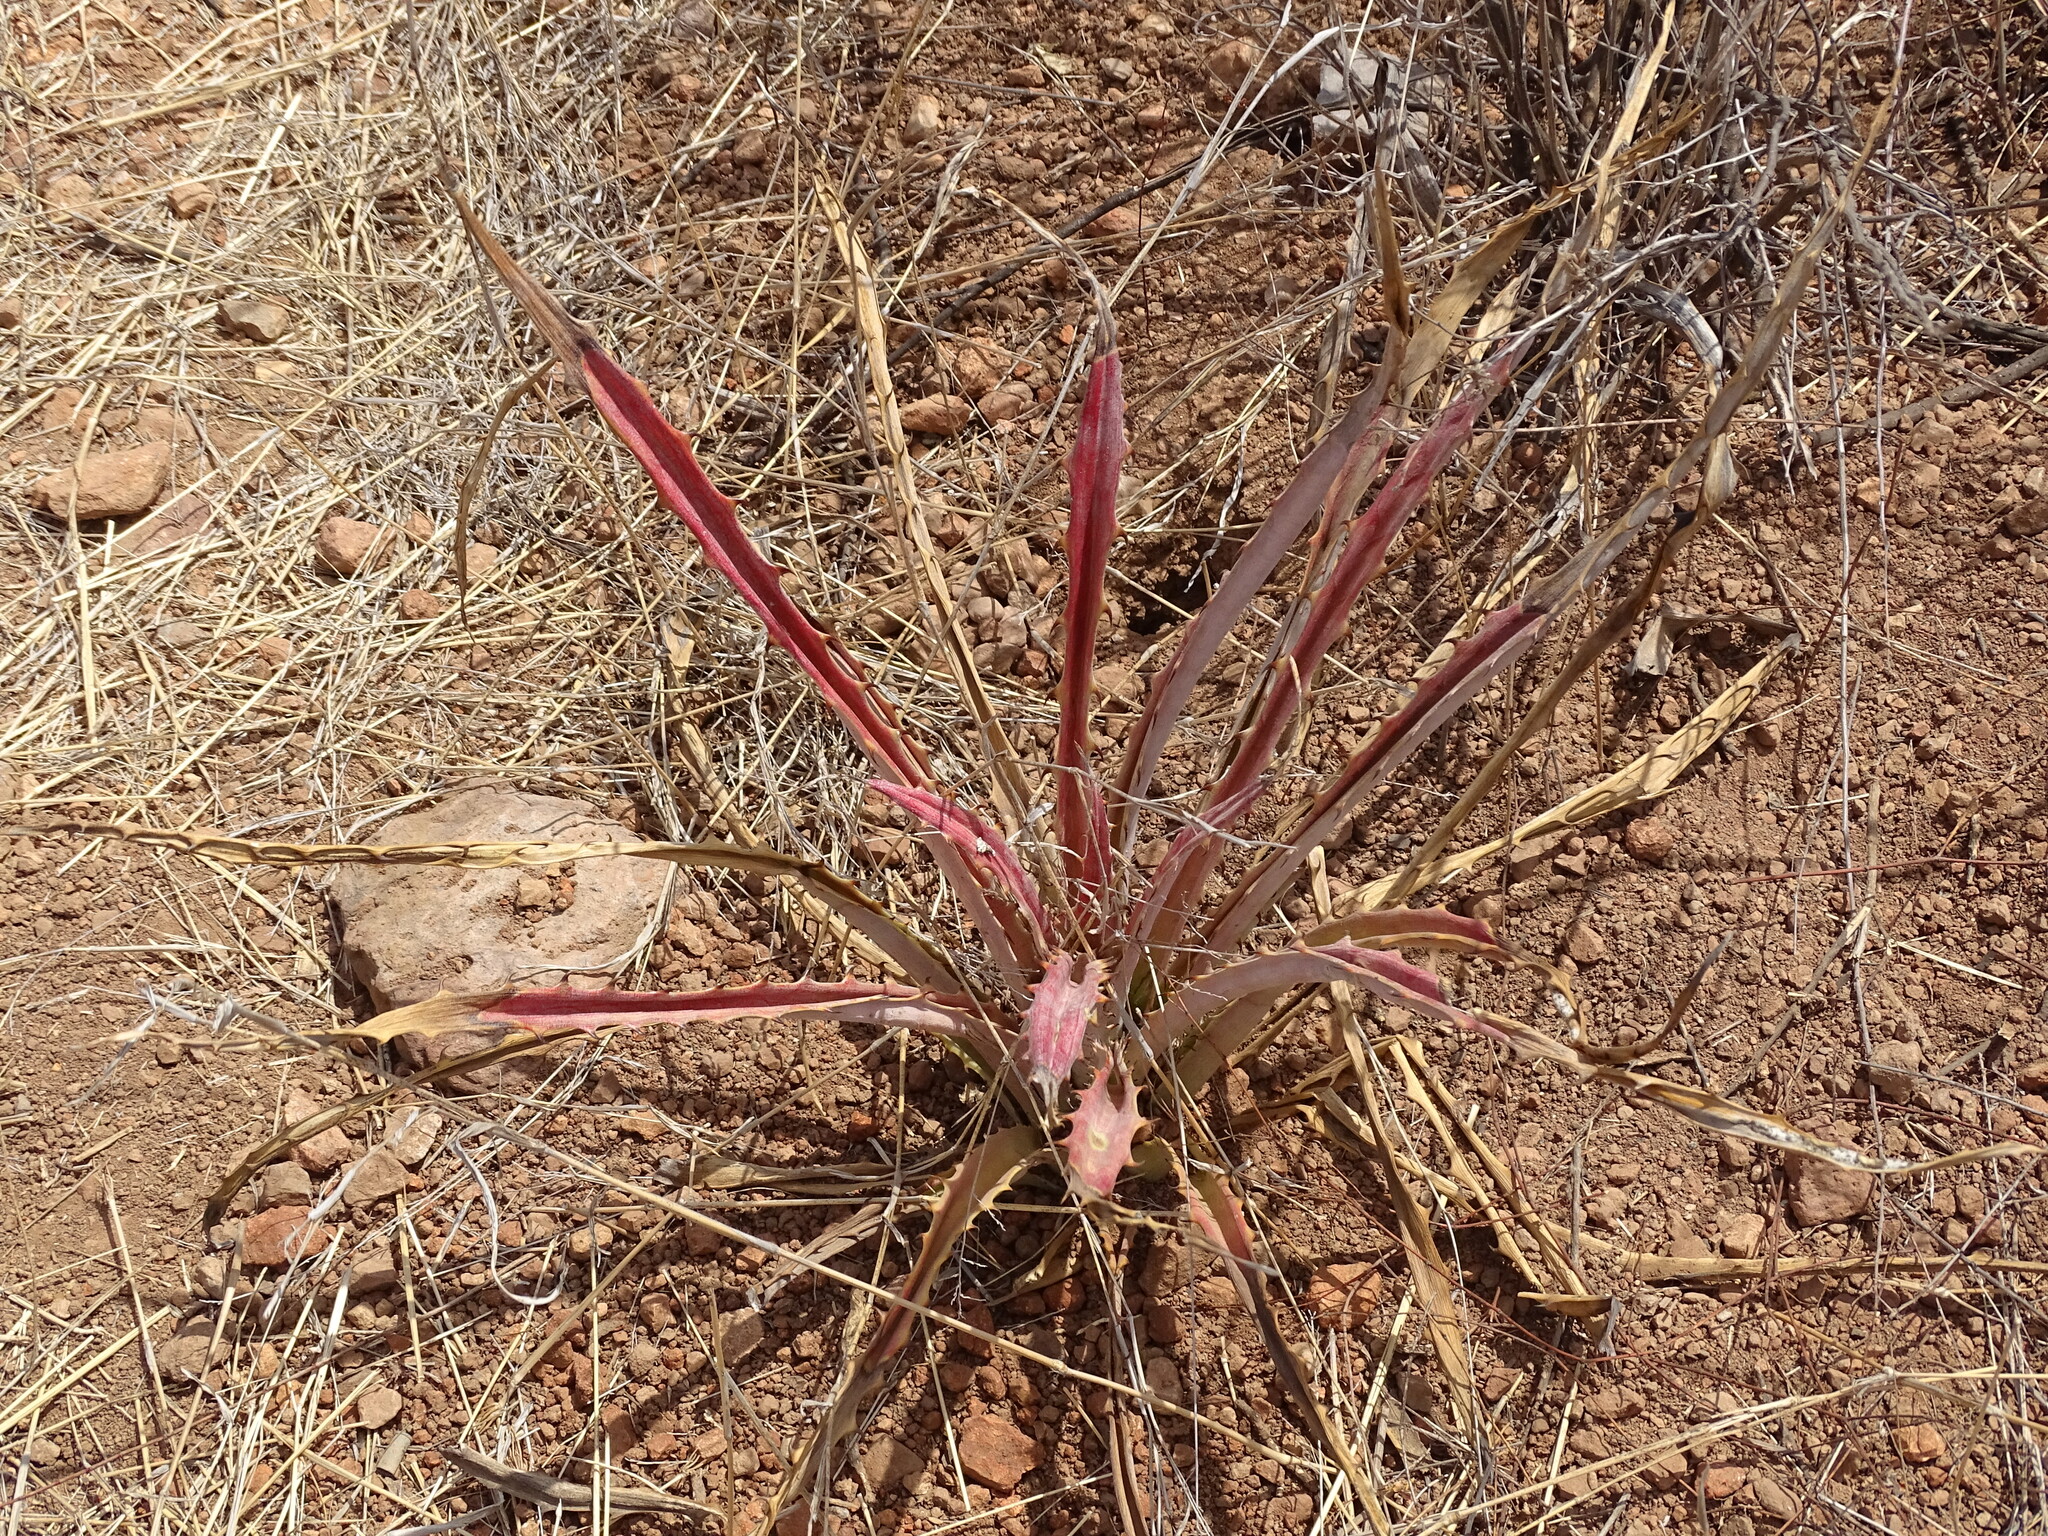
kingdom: Plantae
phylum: Tracheophyta
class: Liliopsida
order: Poales
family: Bromeliaceae
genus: Bromelia
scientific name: Bromelia pinguin
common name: Pinguin
